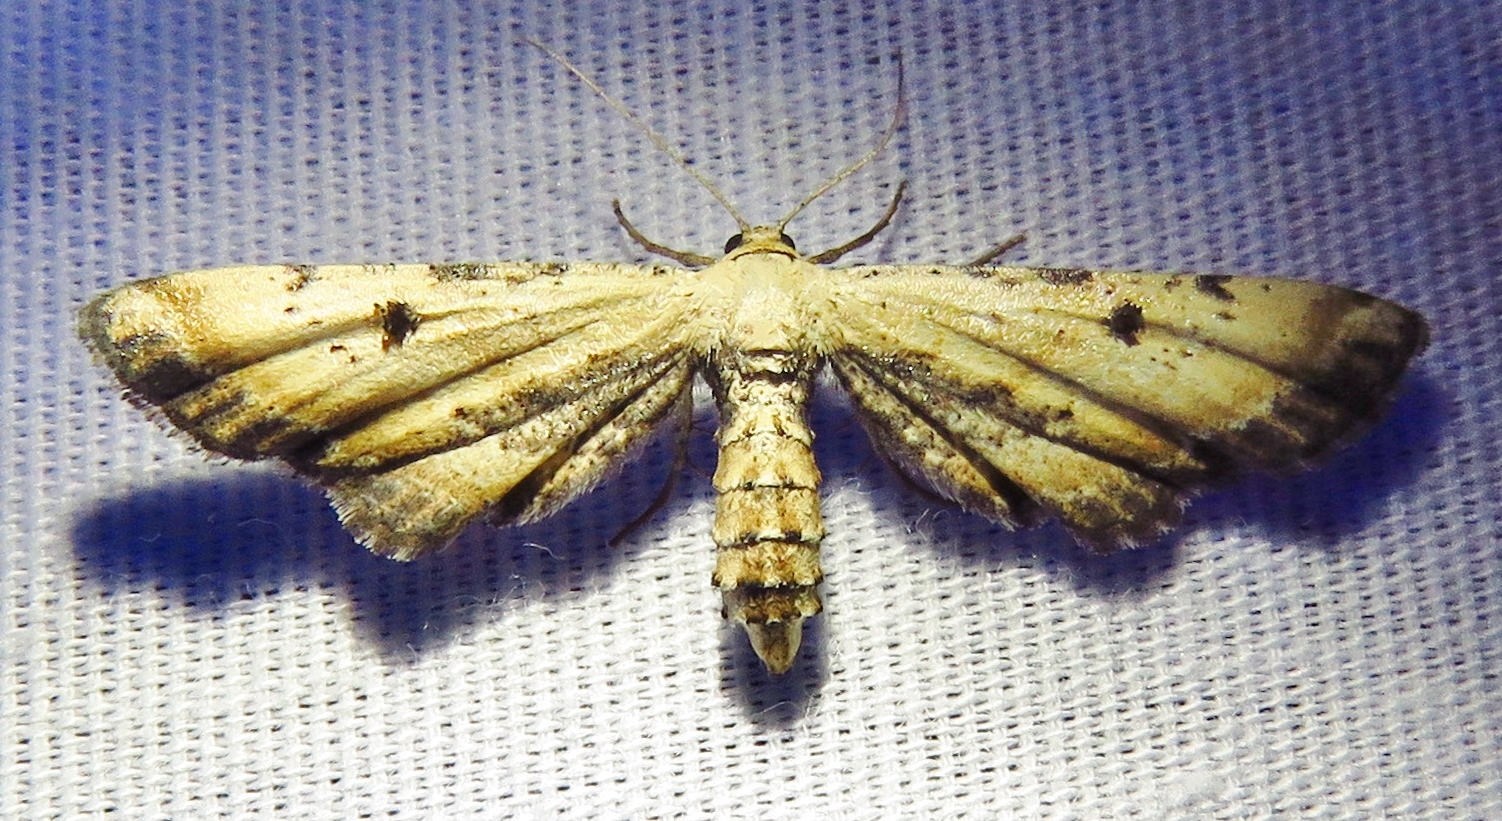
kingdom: Animalia
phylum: Arthropoda
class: Insecta
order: Lepidoptera
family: Geometridae
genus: Tornos
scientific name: Tornos scolopacinaria
